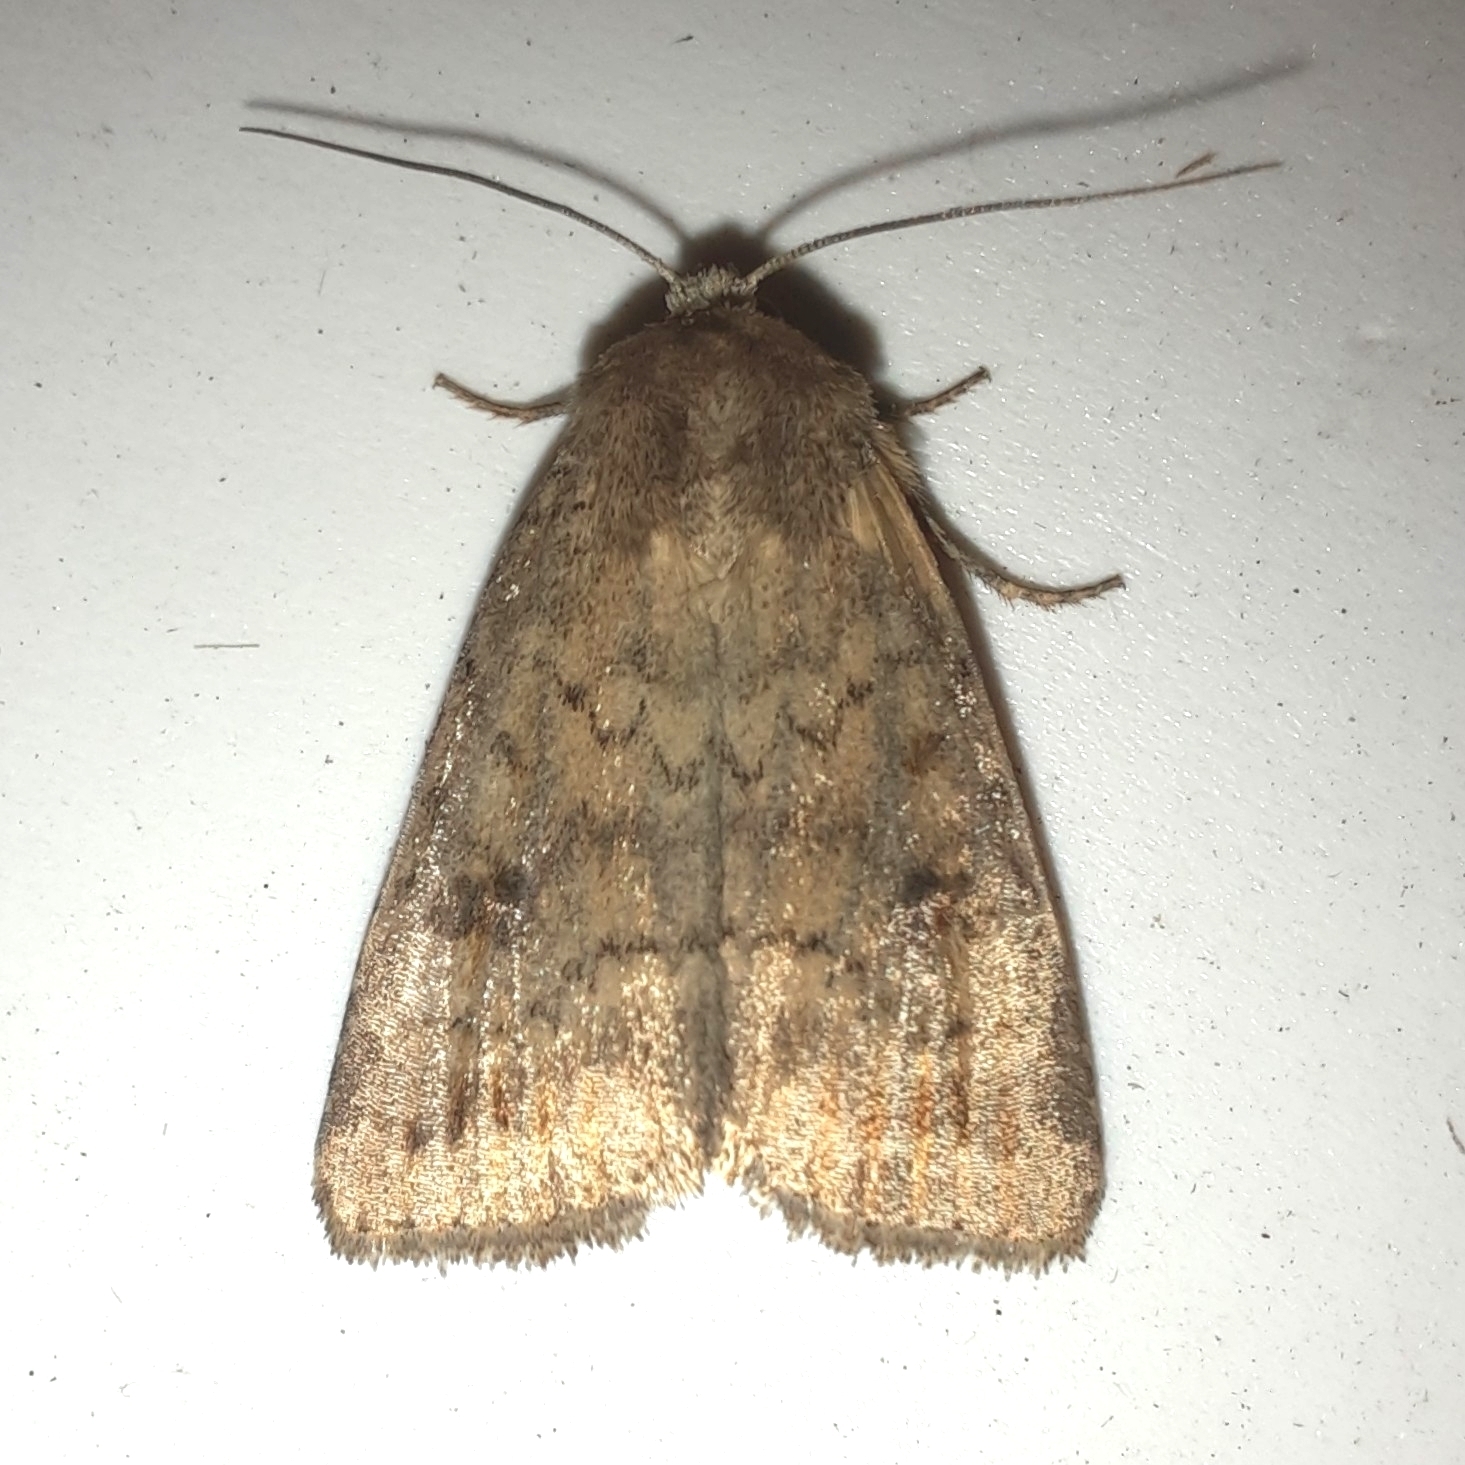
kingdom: Animalia
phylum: Arthropoda
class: Insecta
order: Lepidoptera
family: Noctuidae
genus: Caradrina
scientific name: Caradrina morpheus
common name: Mottled rustic
